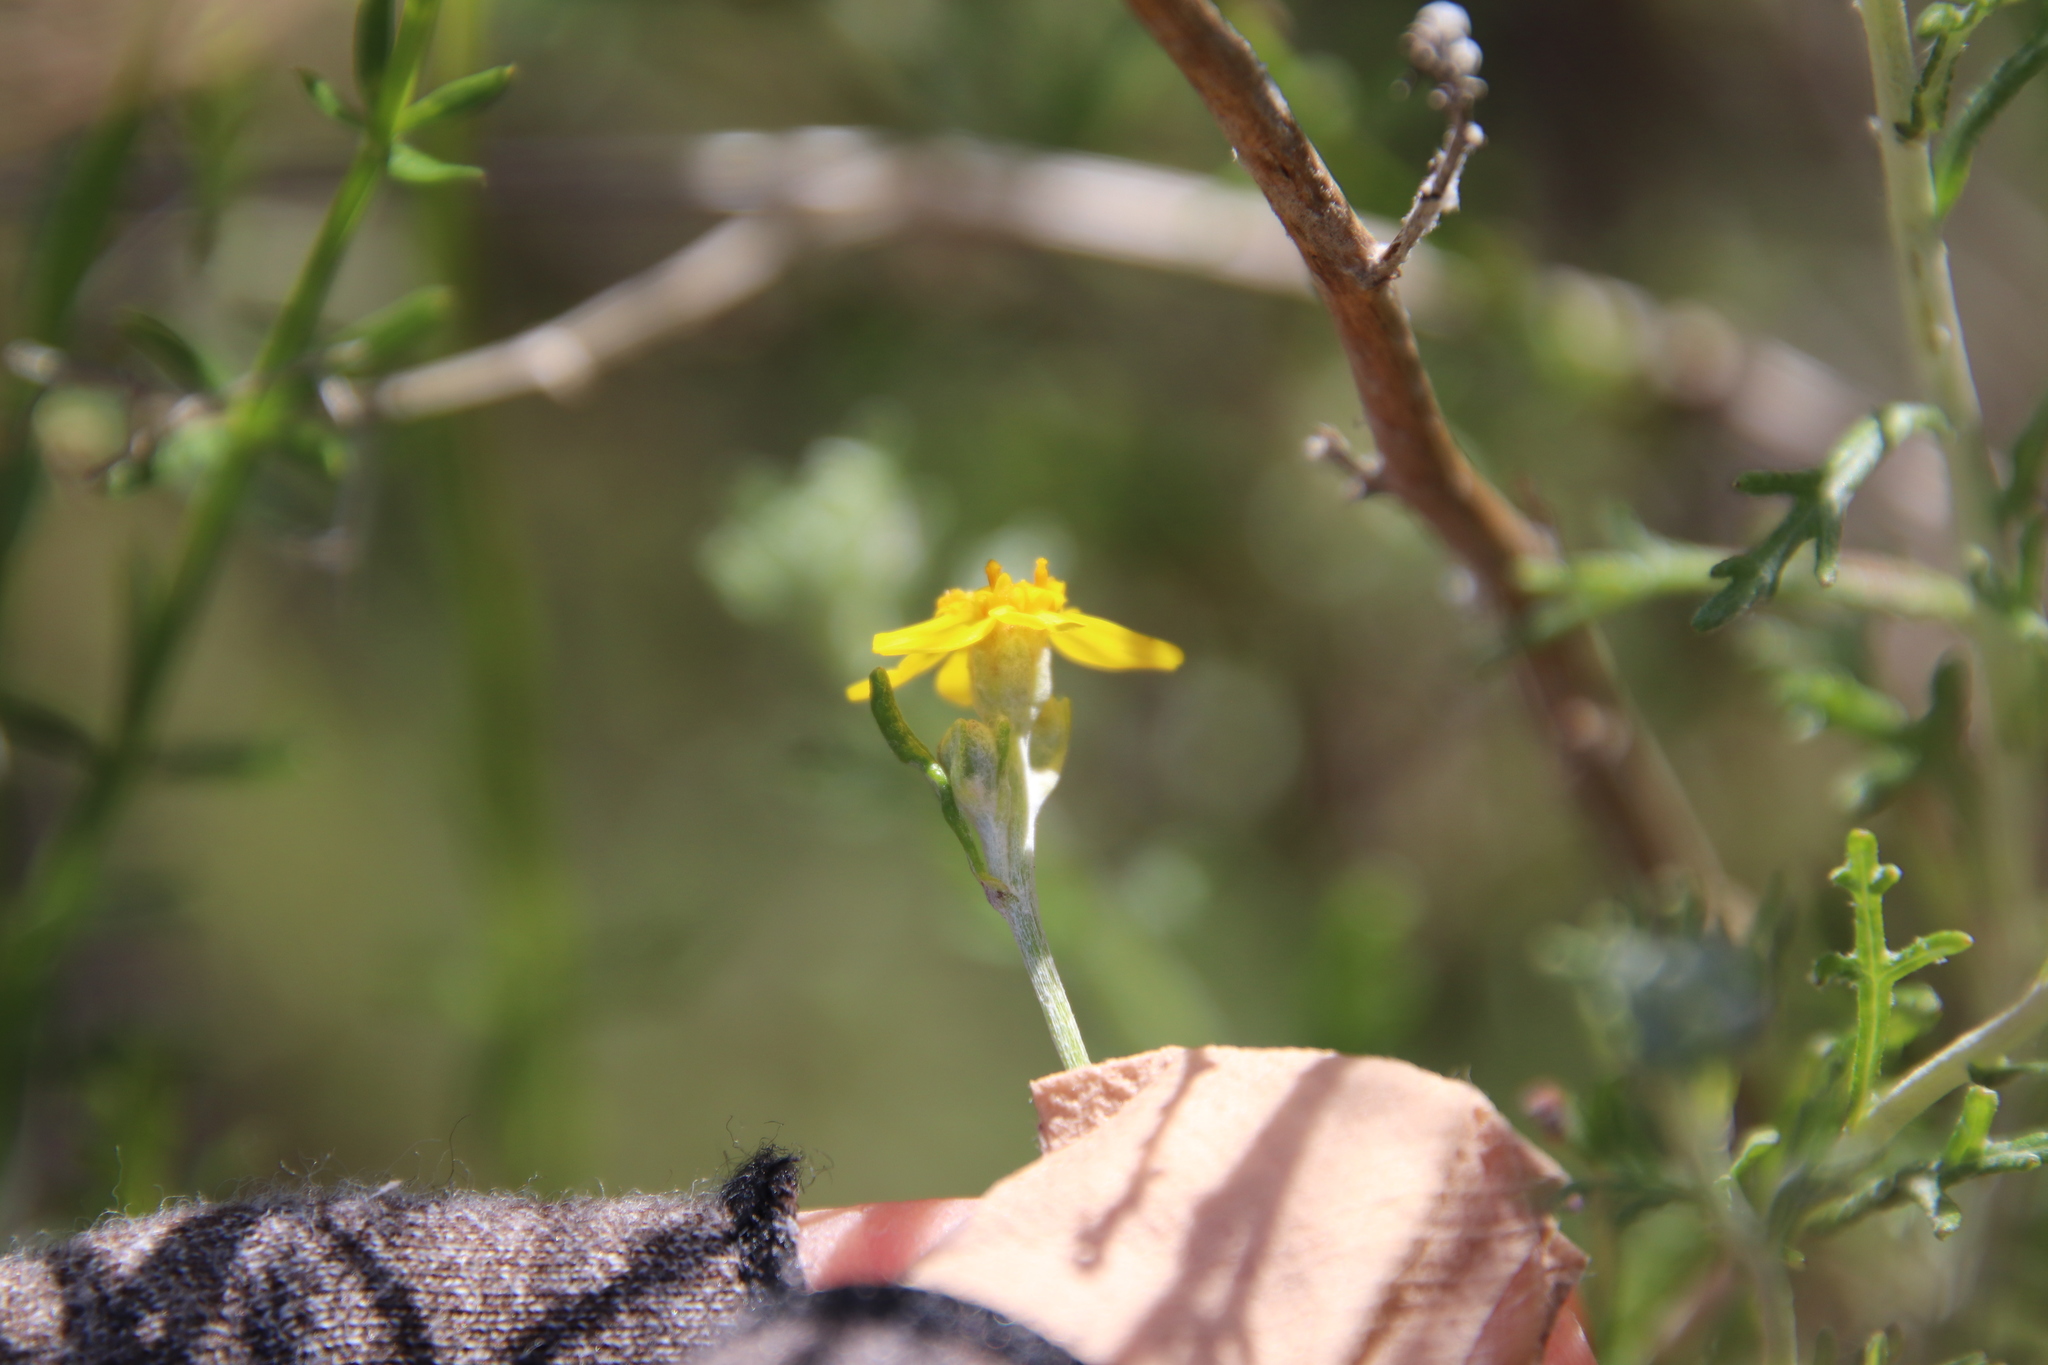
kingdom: Plantae
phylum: Tracheophyta
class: Magnoliopsida
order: Asterales
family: Asteraceae
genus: Eriophyllum
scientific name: Eriophyllum confertiflorum
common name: Golden-yarrow
